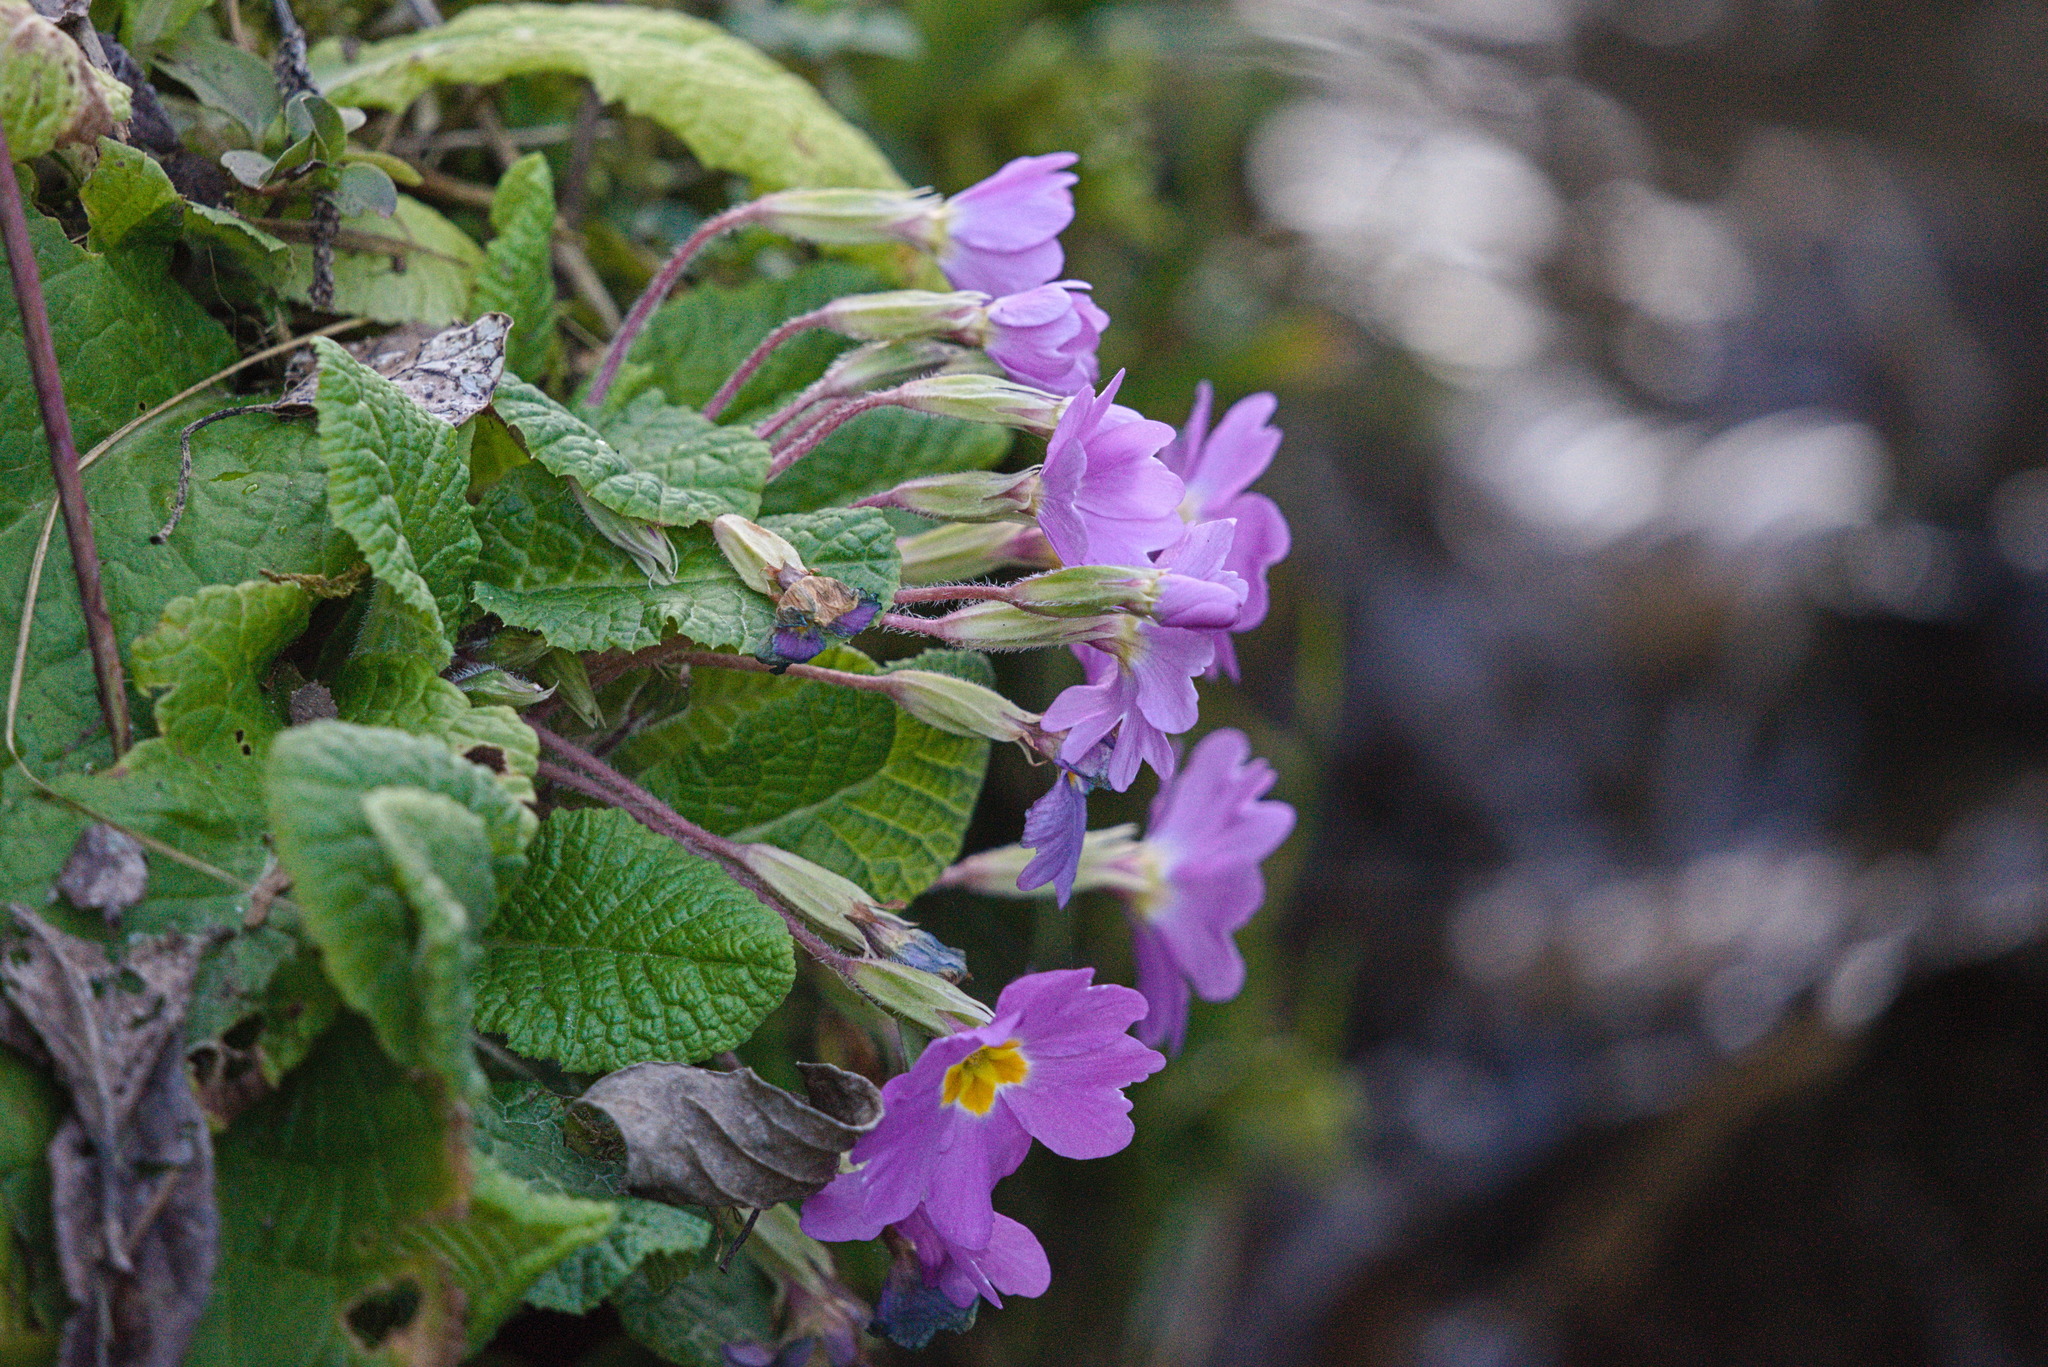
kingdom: Plantae
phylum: Tracheophyta
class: Magnoliopsida
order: Ericales
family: Primulaceae
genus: Primula
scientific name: Primula vulgaris
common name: Primrose
